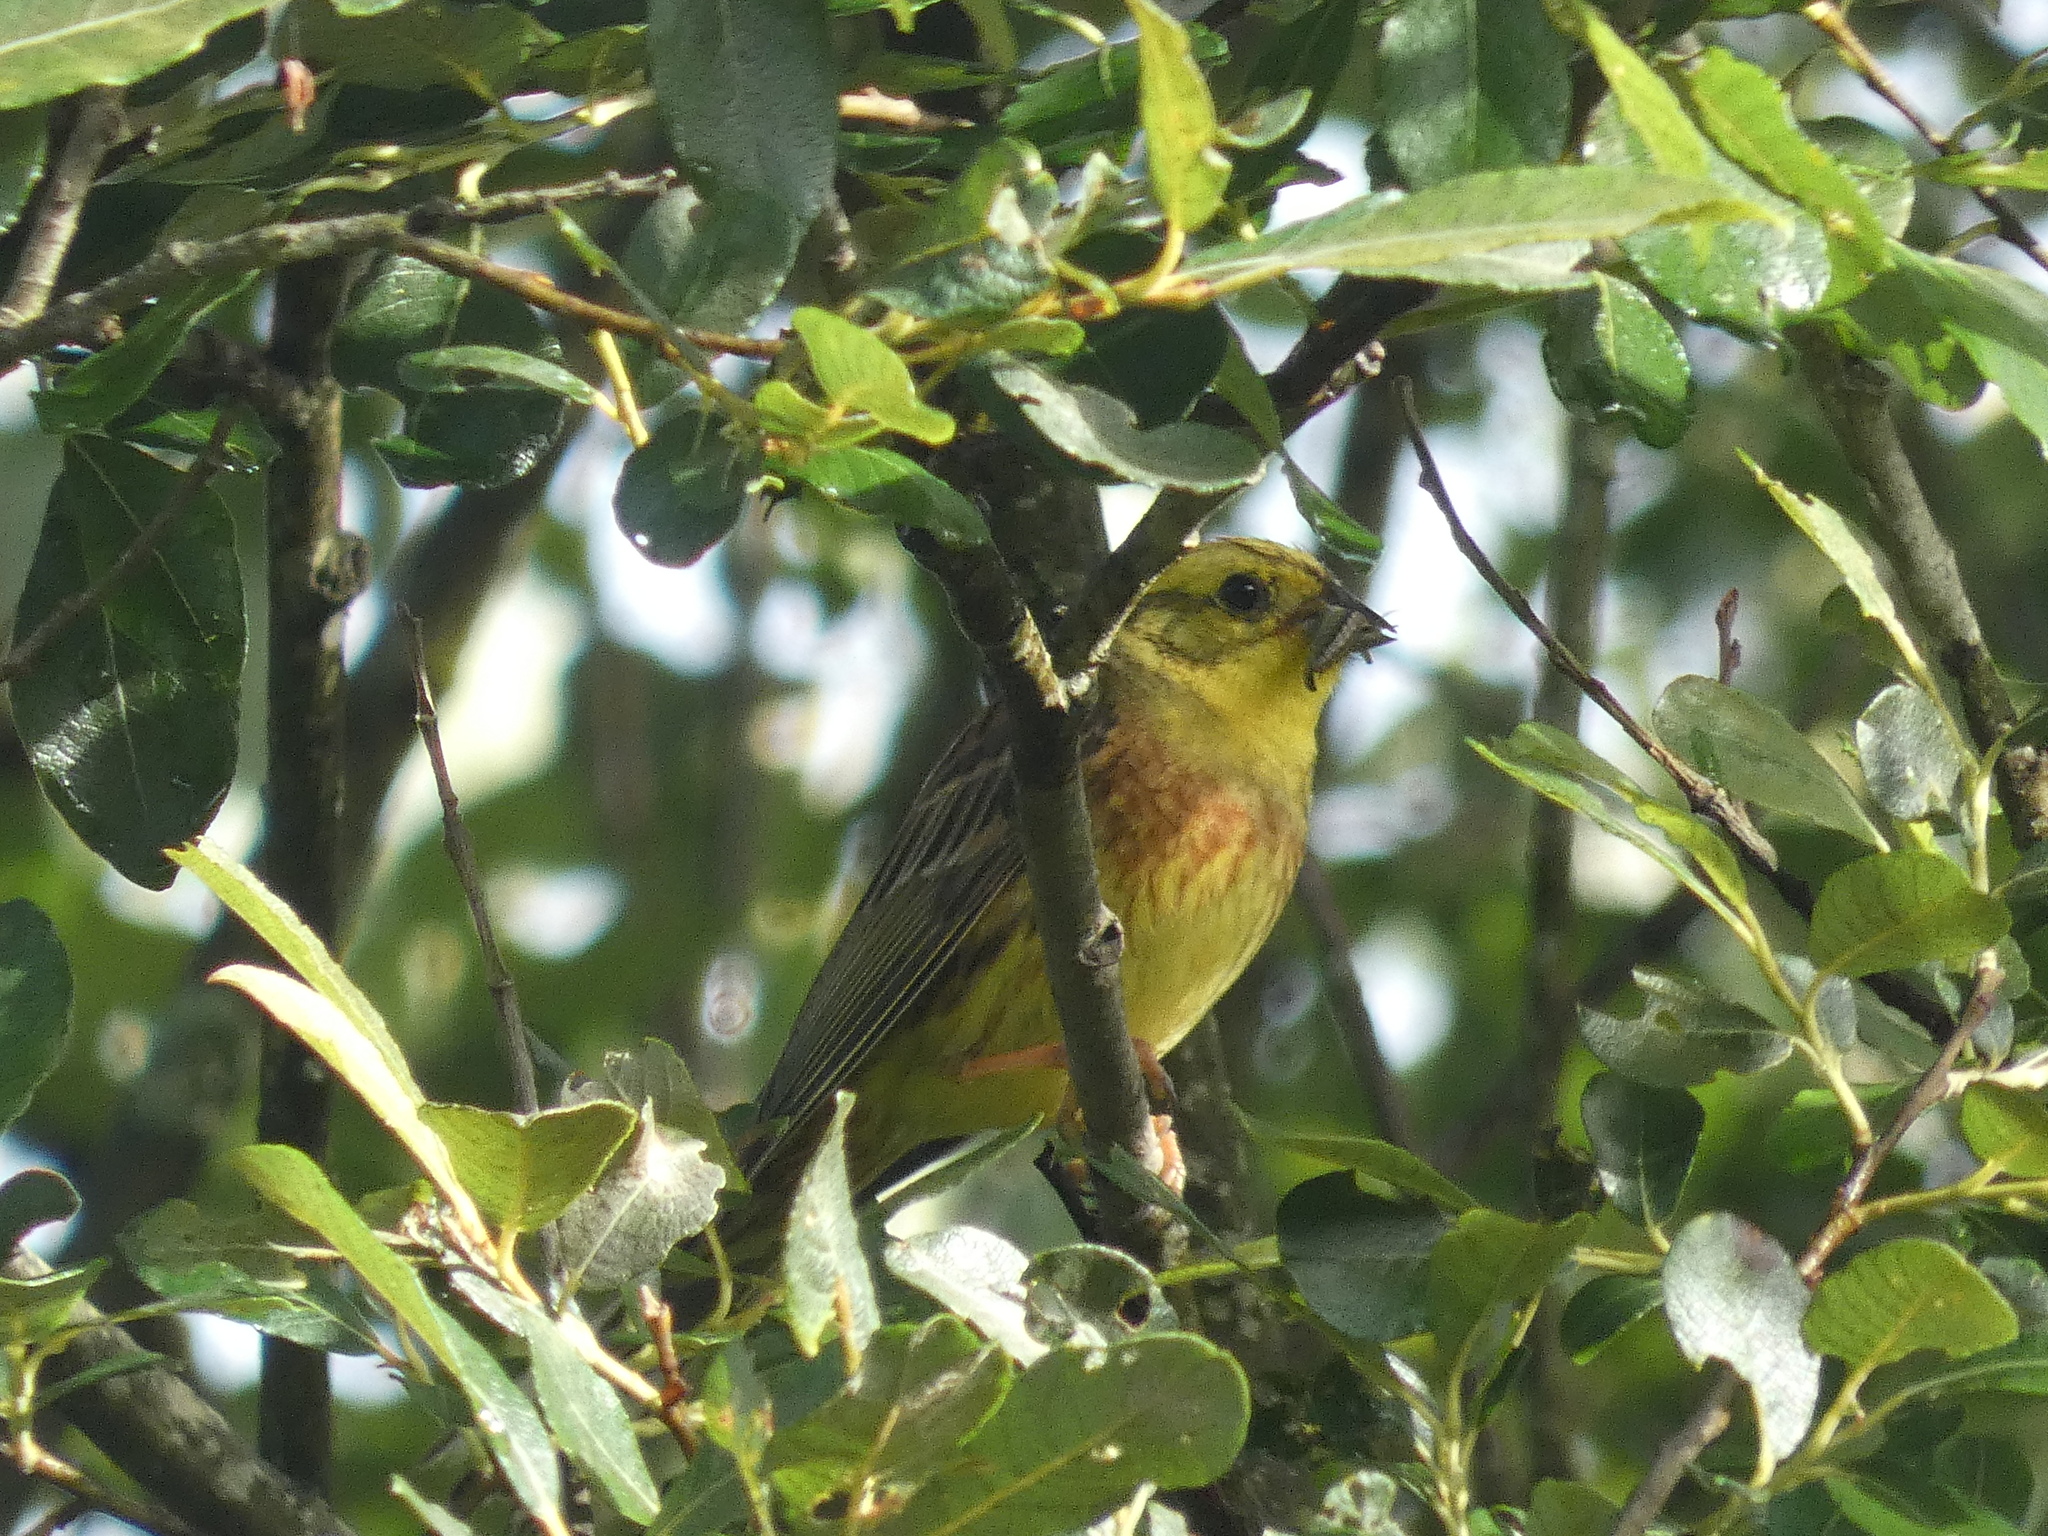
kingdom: Animalia
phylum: Chordata
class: Aves
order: Passeriformes
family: Emberizidae
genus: Emberiza
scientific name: Emberiza citrinella
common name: Yellowhammer
